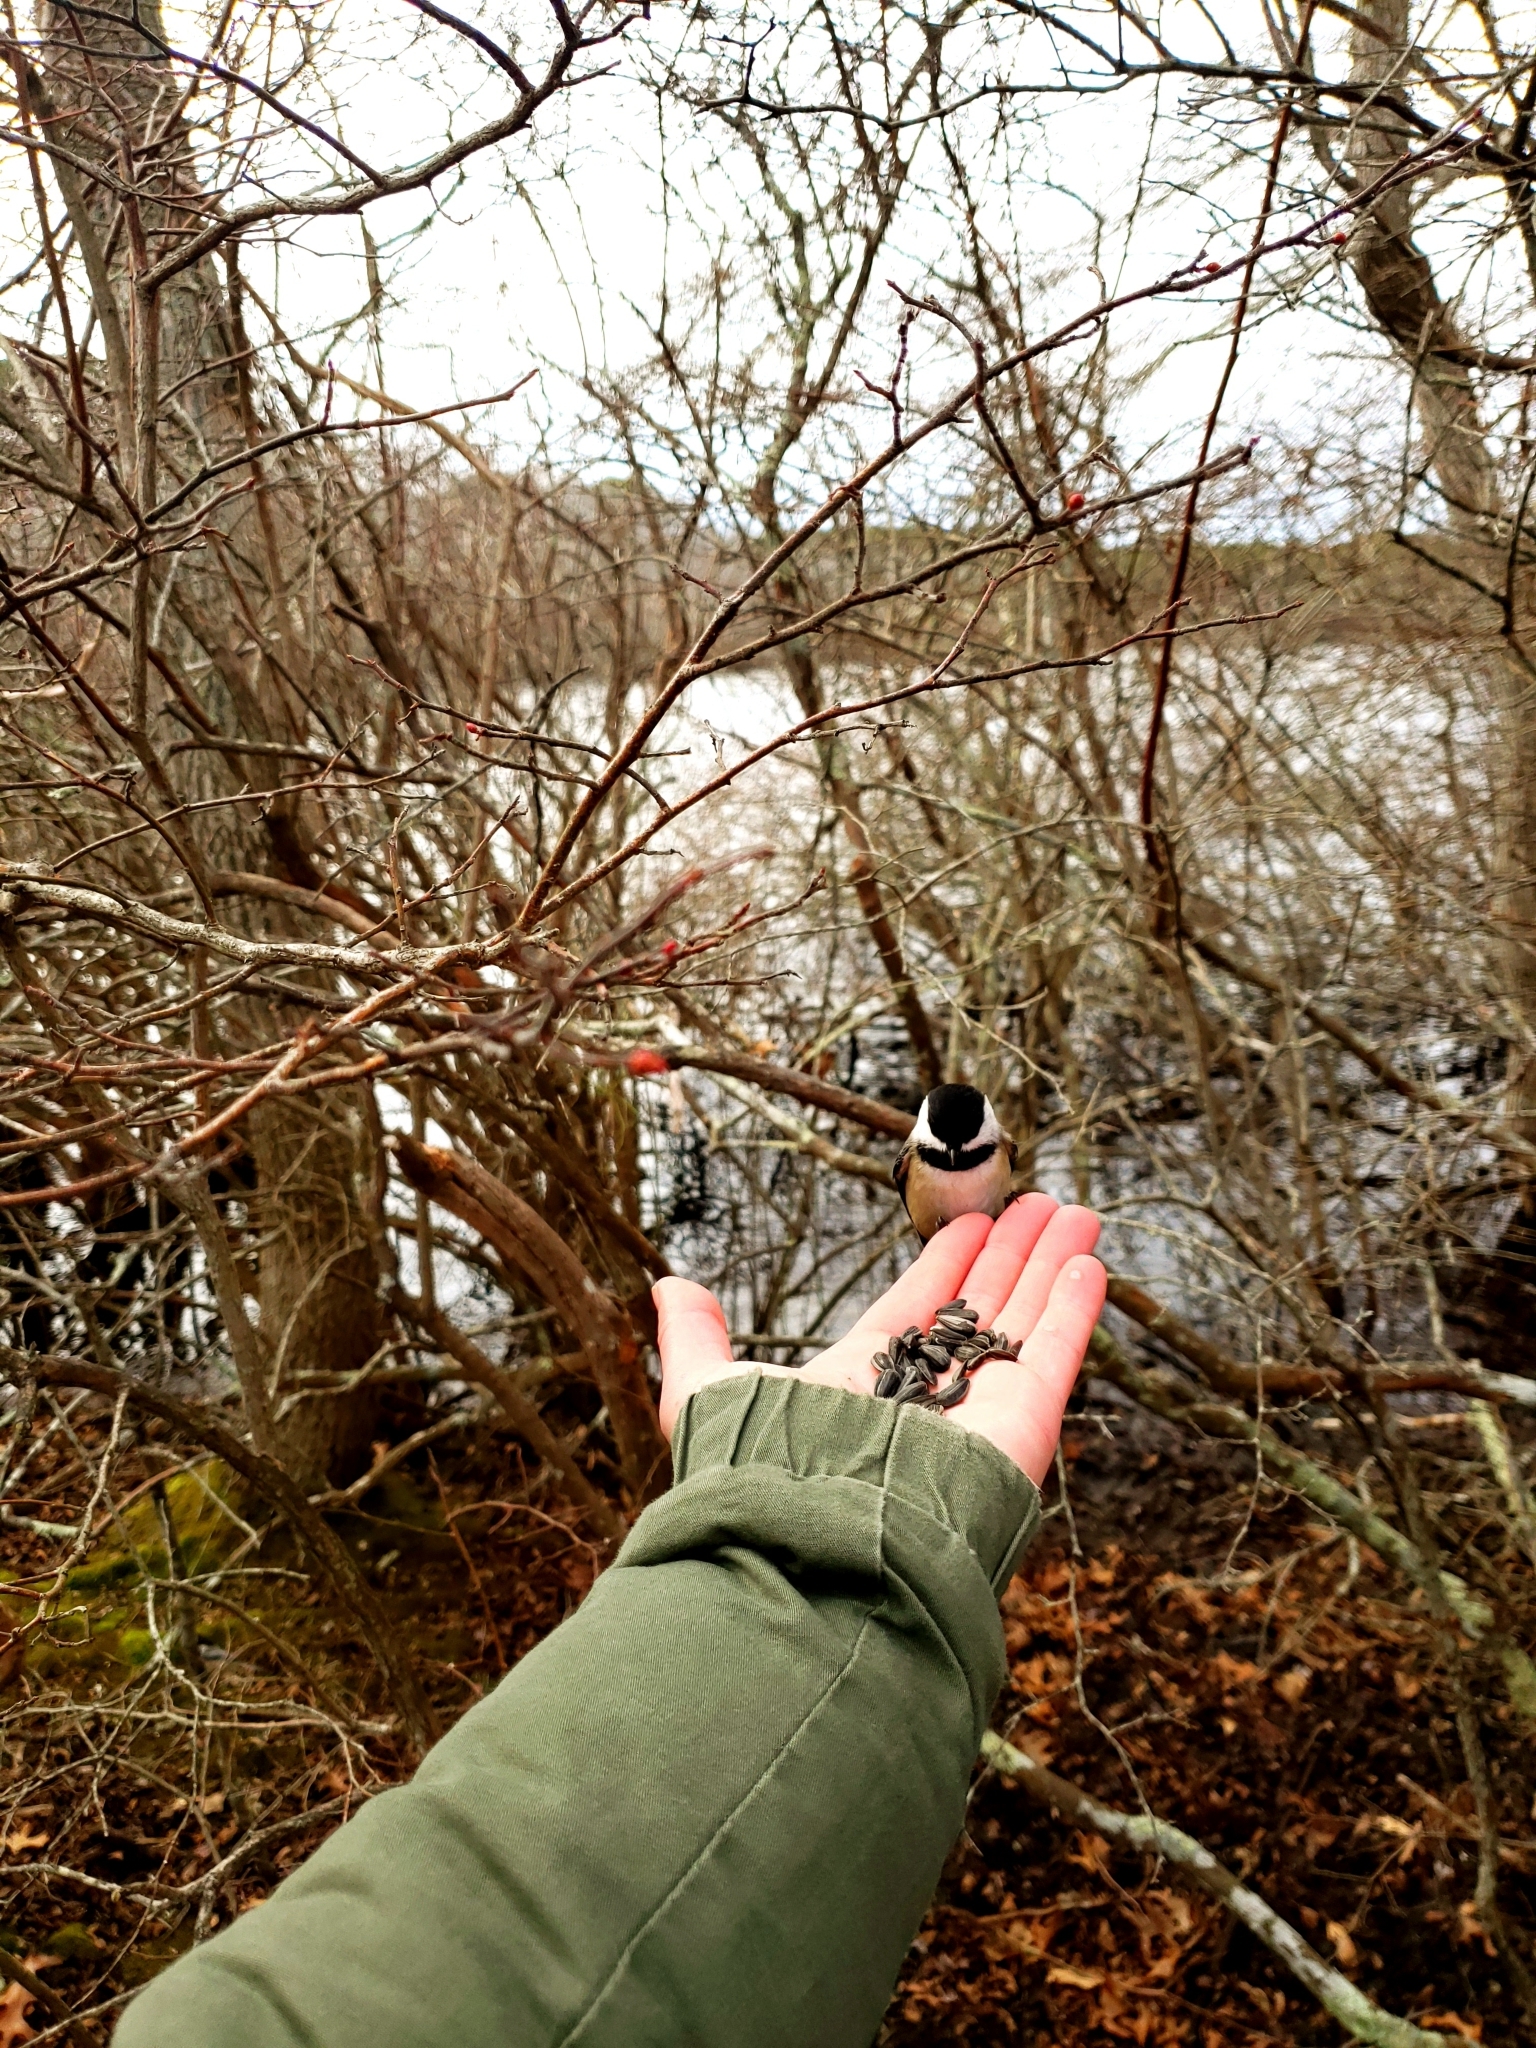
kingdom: Animalia
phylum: Chordata
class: Aves
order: Passeriformes
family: Paridae
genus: Poecile
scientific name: Poecile atricapillus
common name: Black-capped chickadee
